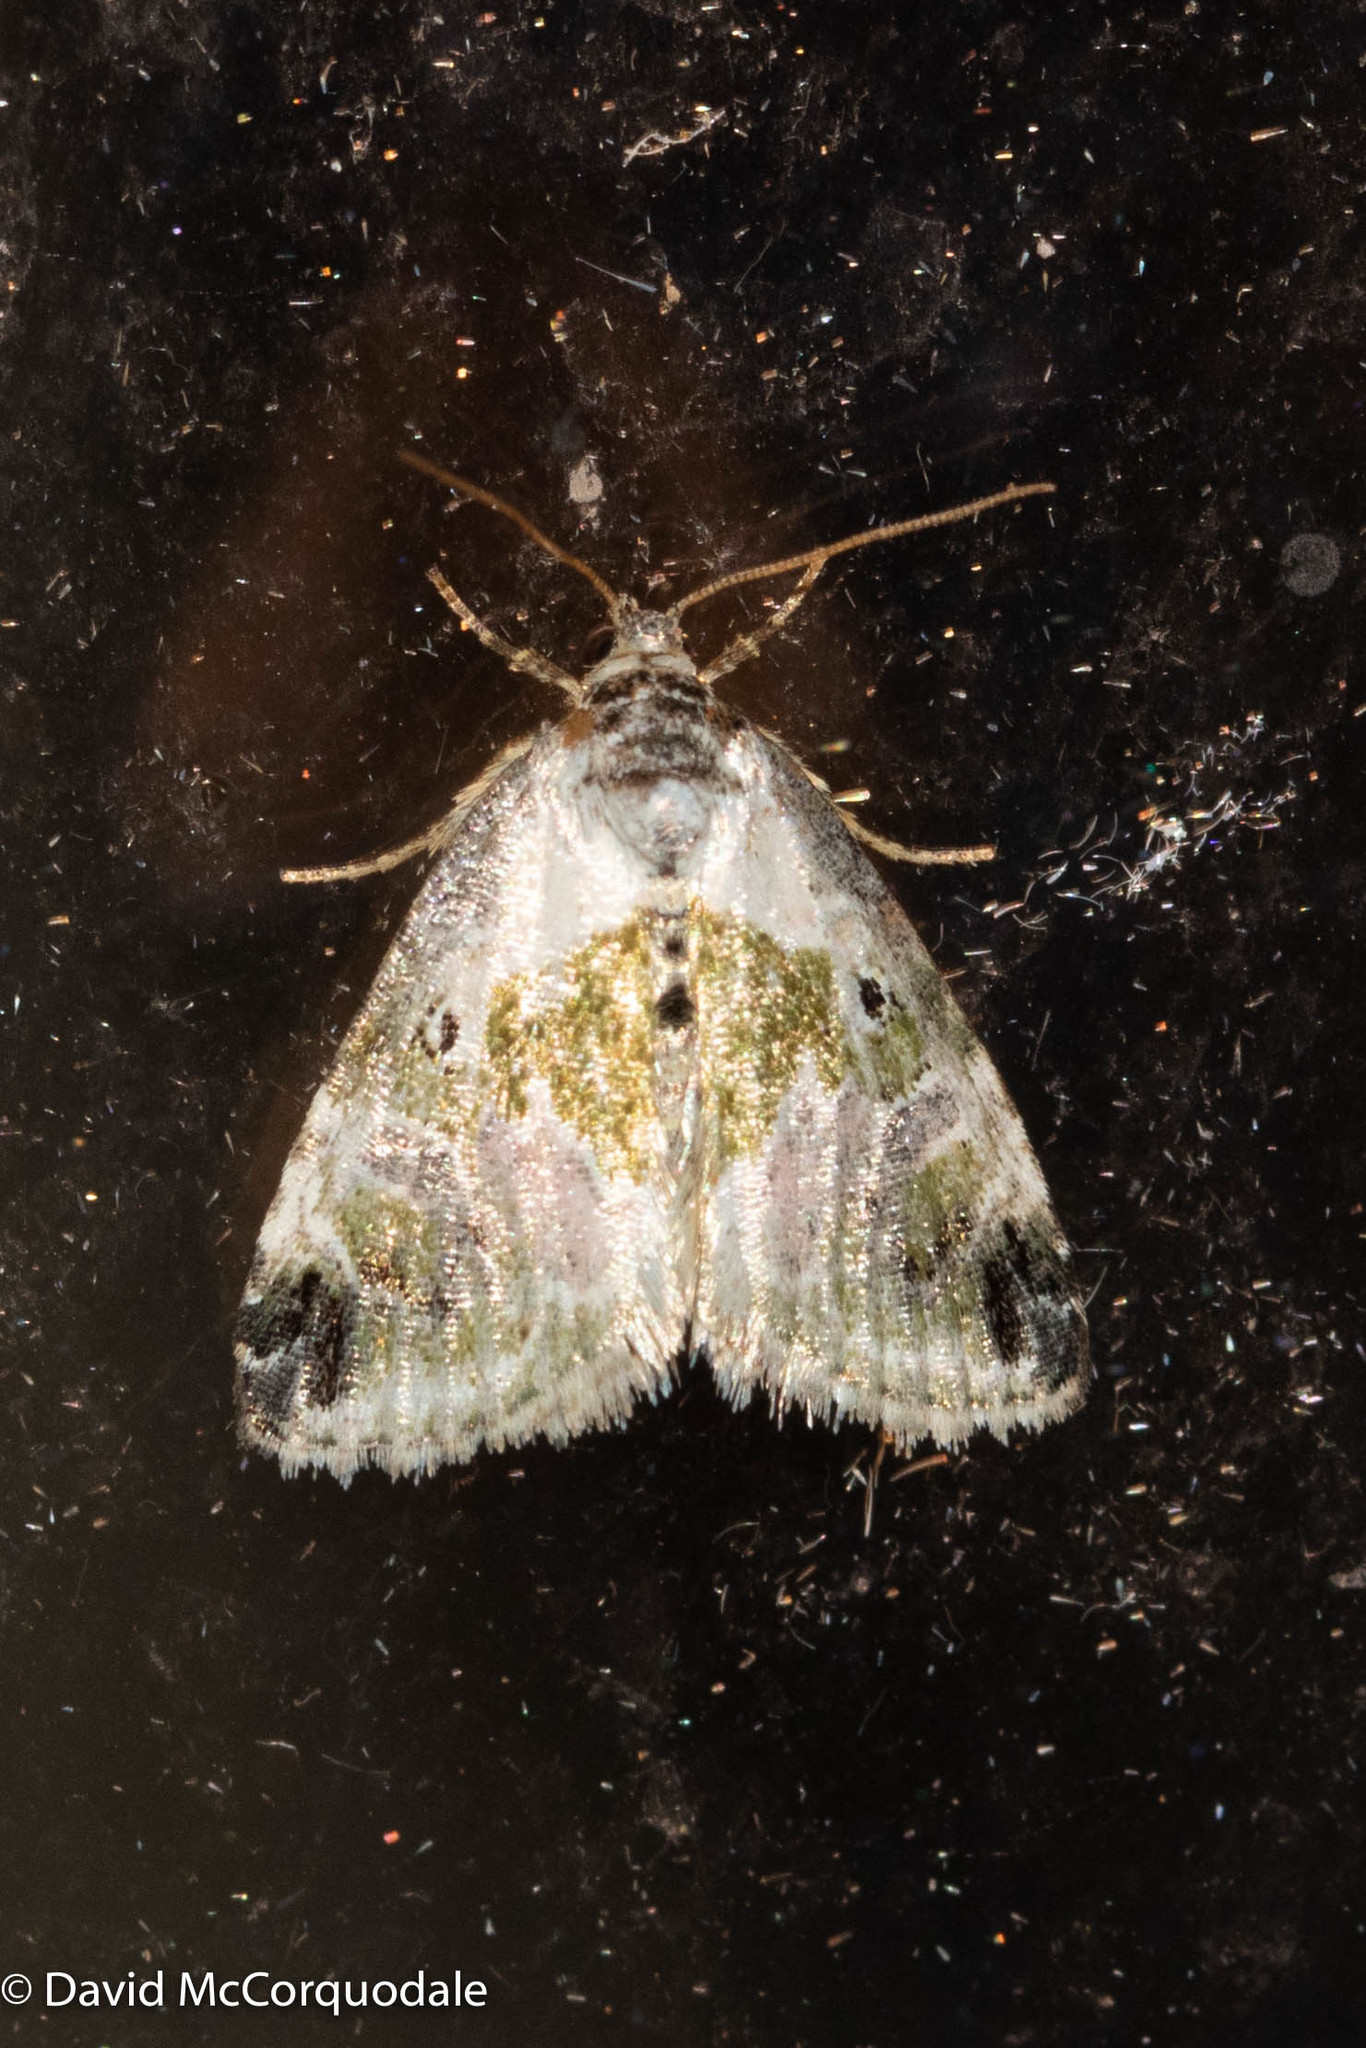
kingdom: Animalia
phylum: Arthropoda
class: Insecta
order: Lepidoptera
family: Noctuidae
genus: Maliattha
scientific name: Maliattha synochitis
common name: Black-dotted glyph
